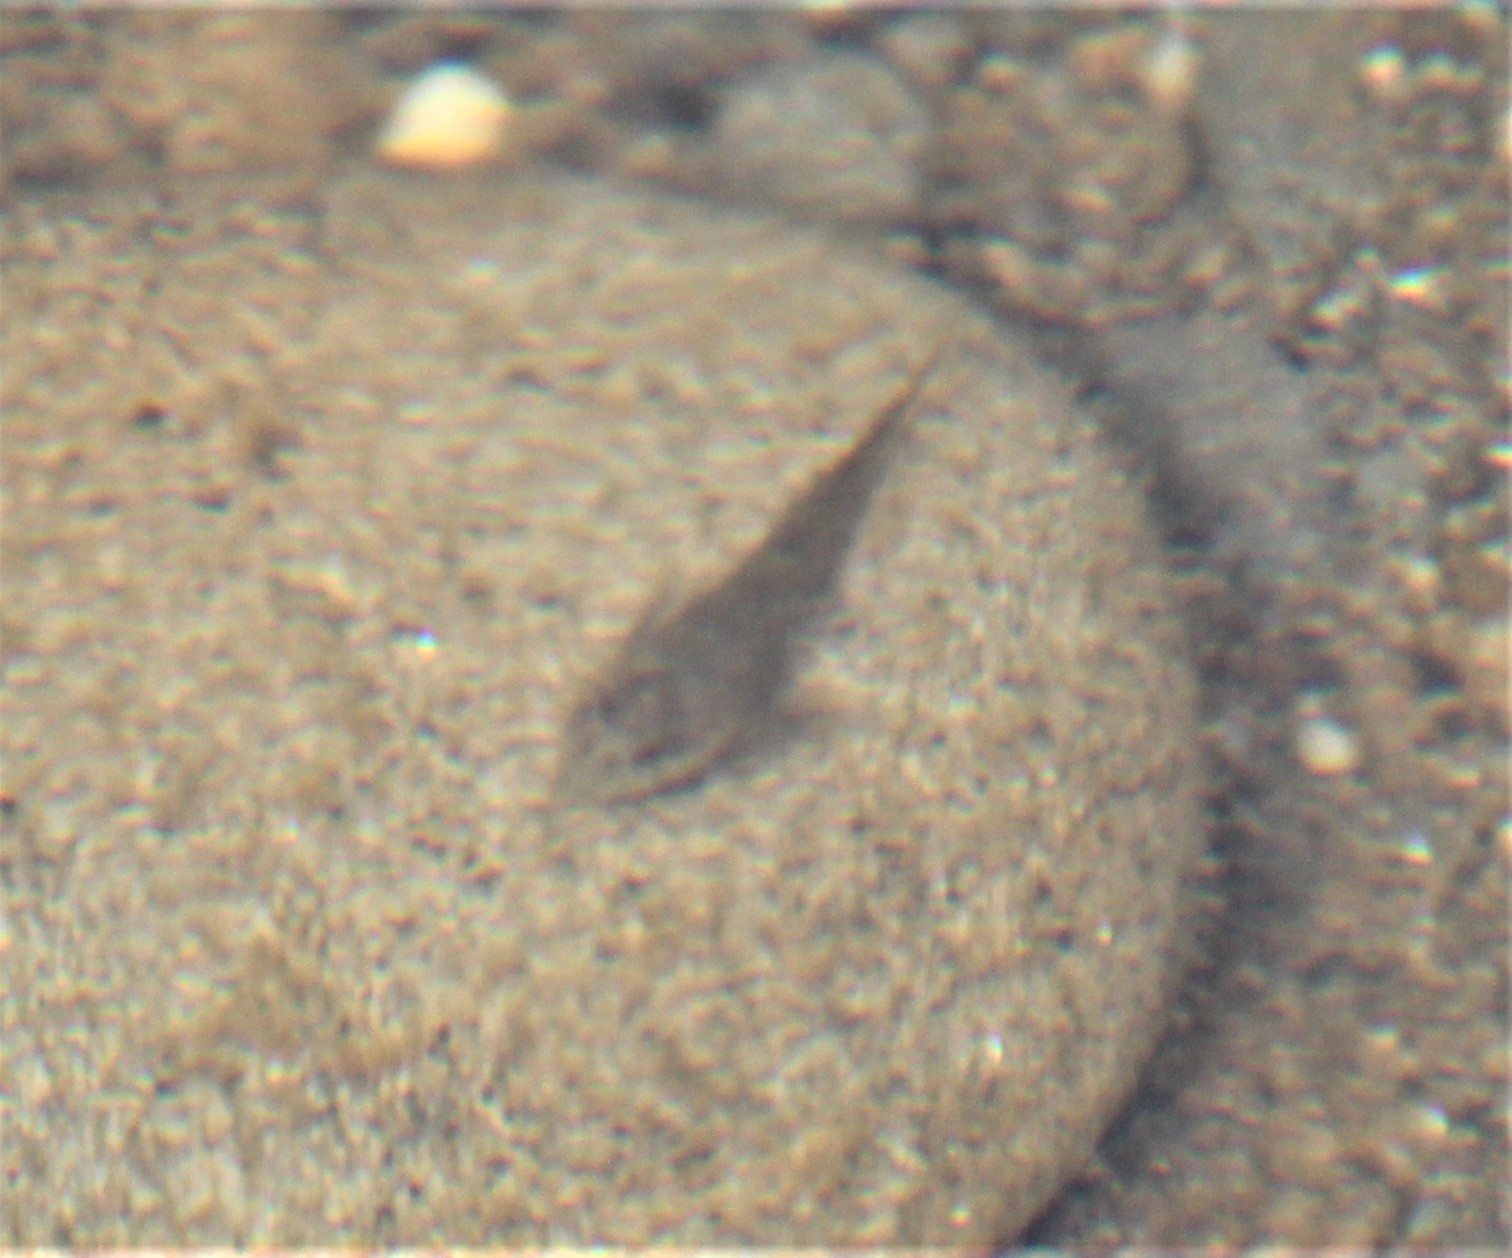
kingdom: Animalia
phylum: Chordata
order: Scorpaeniformes
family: Cottidae
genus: Oligocottus
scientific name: Oligocottus maculosus
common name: Tidepool sculpin
